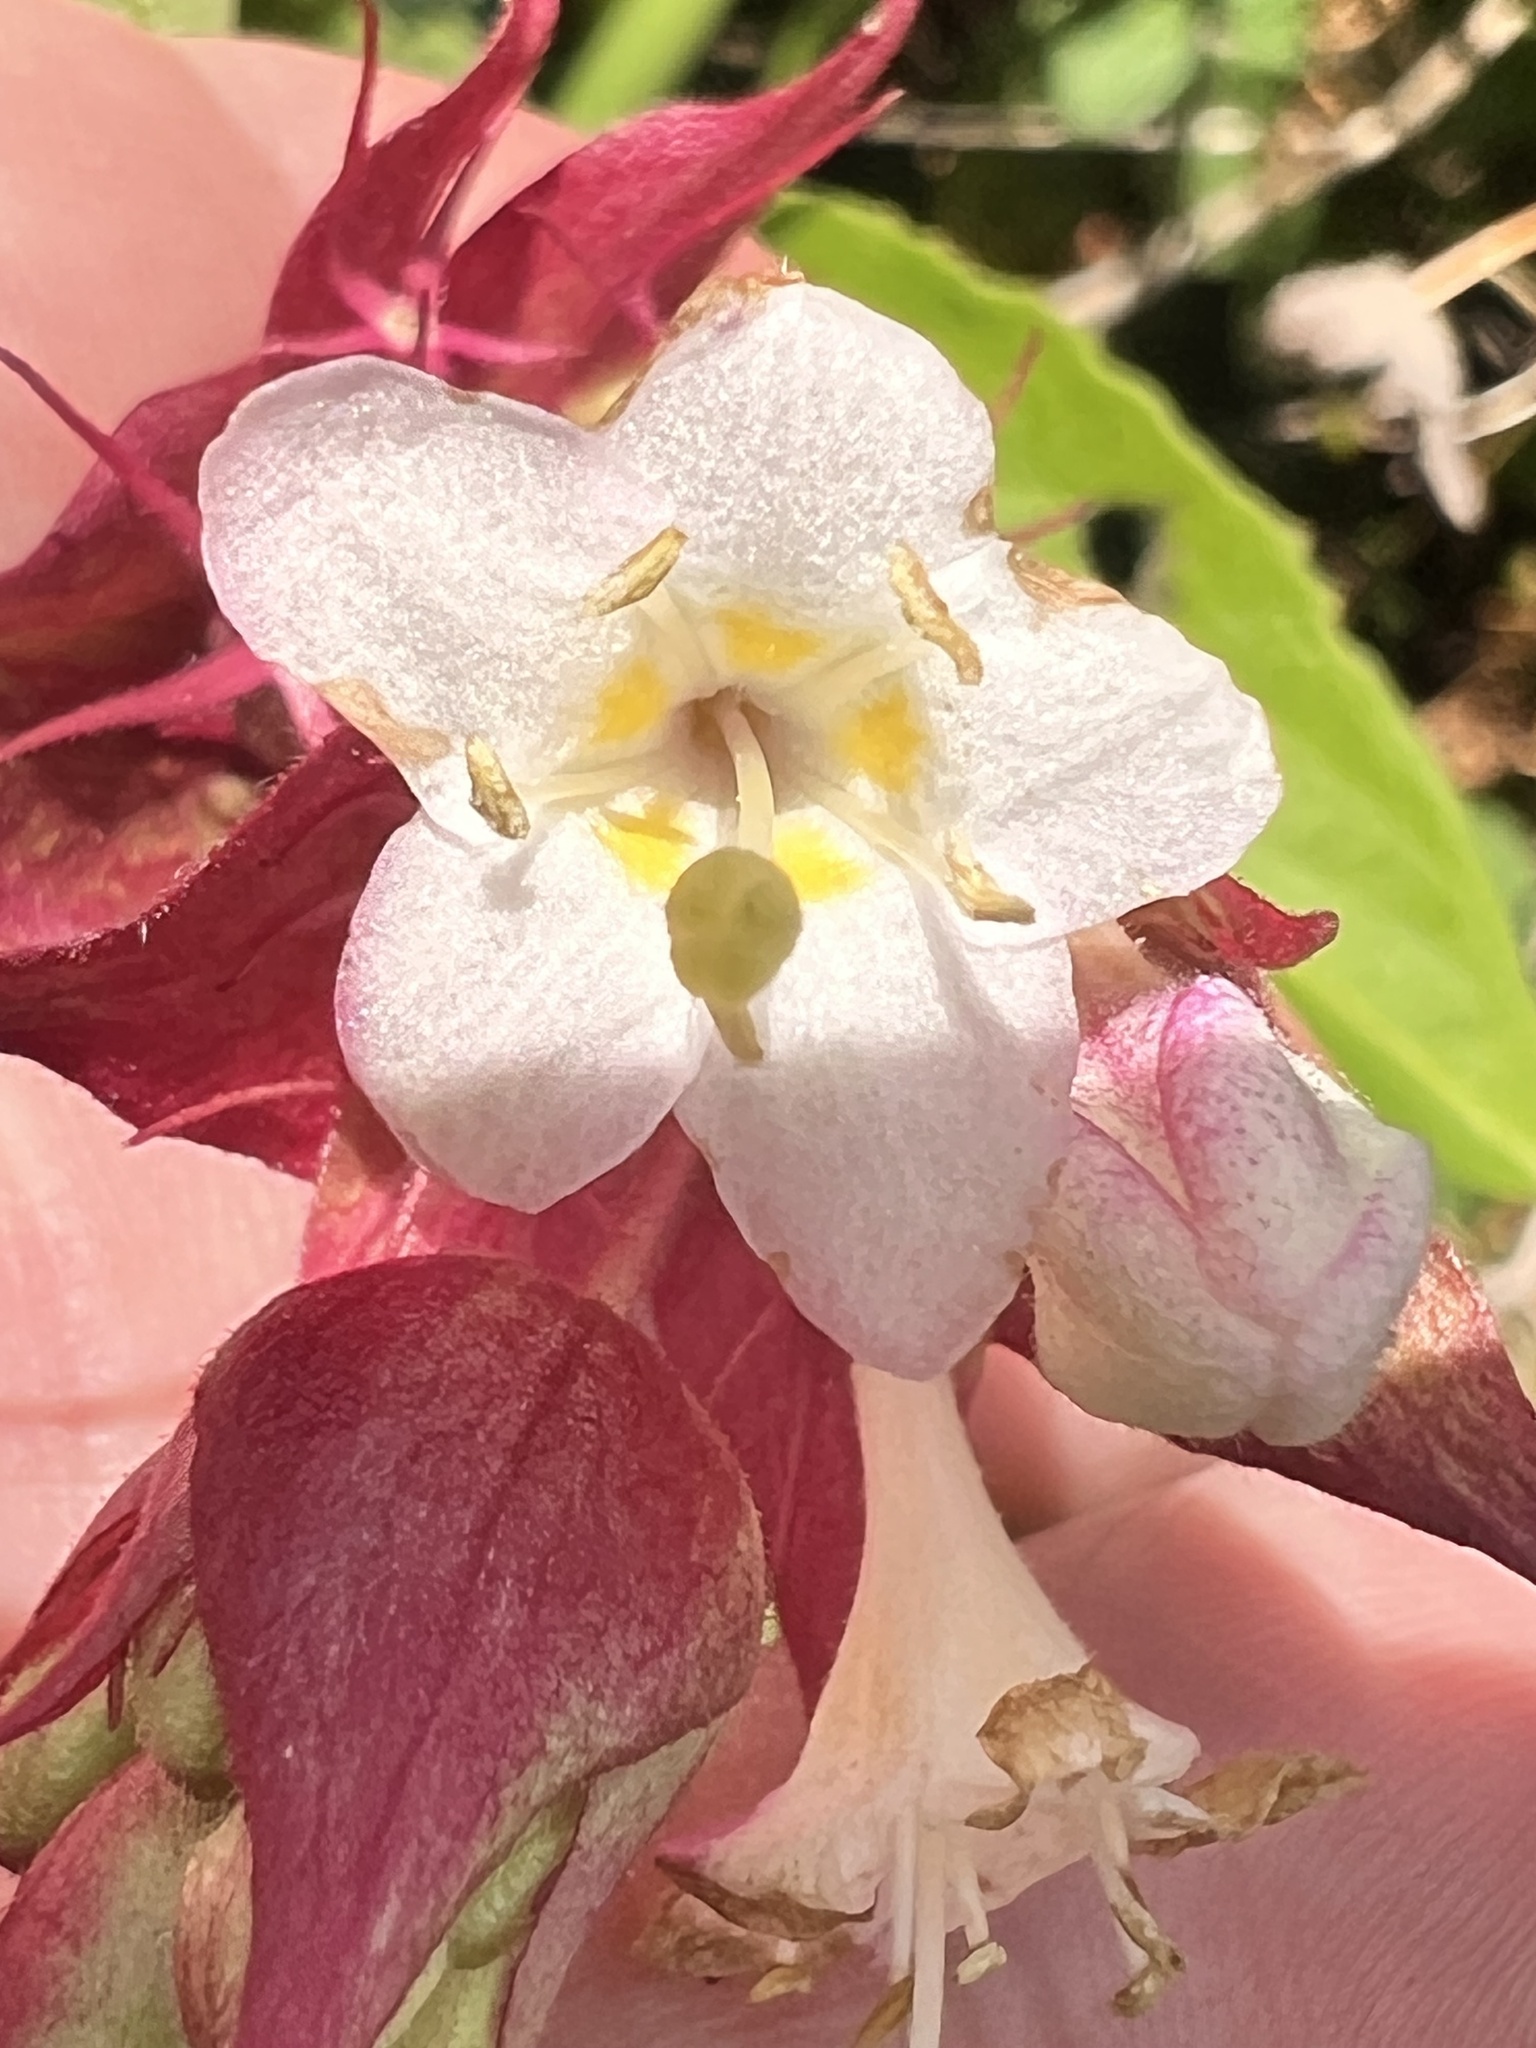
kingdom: Plantae
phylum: Tracheophyta
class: Magnoliopsida
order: Dipsacales
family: Caprifoliaceae
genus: Leycesteria
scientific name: Leycesteria formosa
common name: Himalayan honeysuckle
